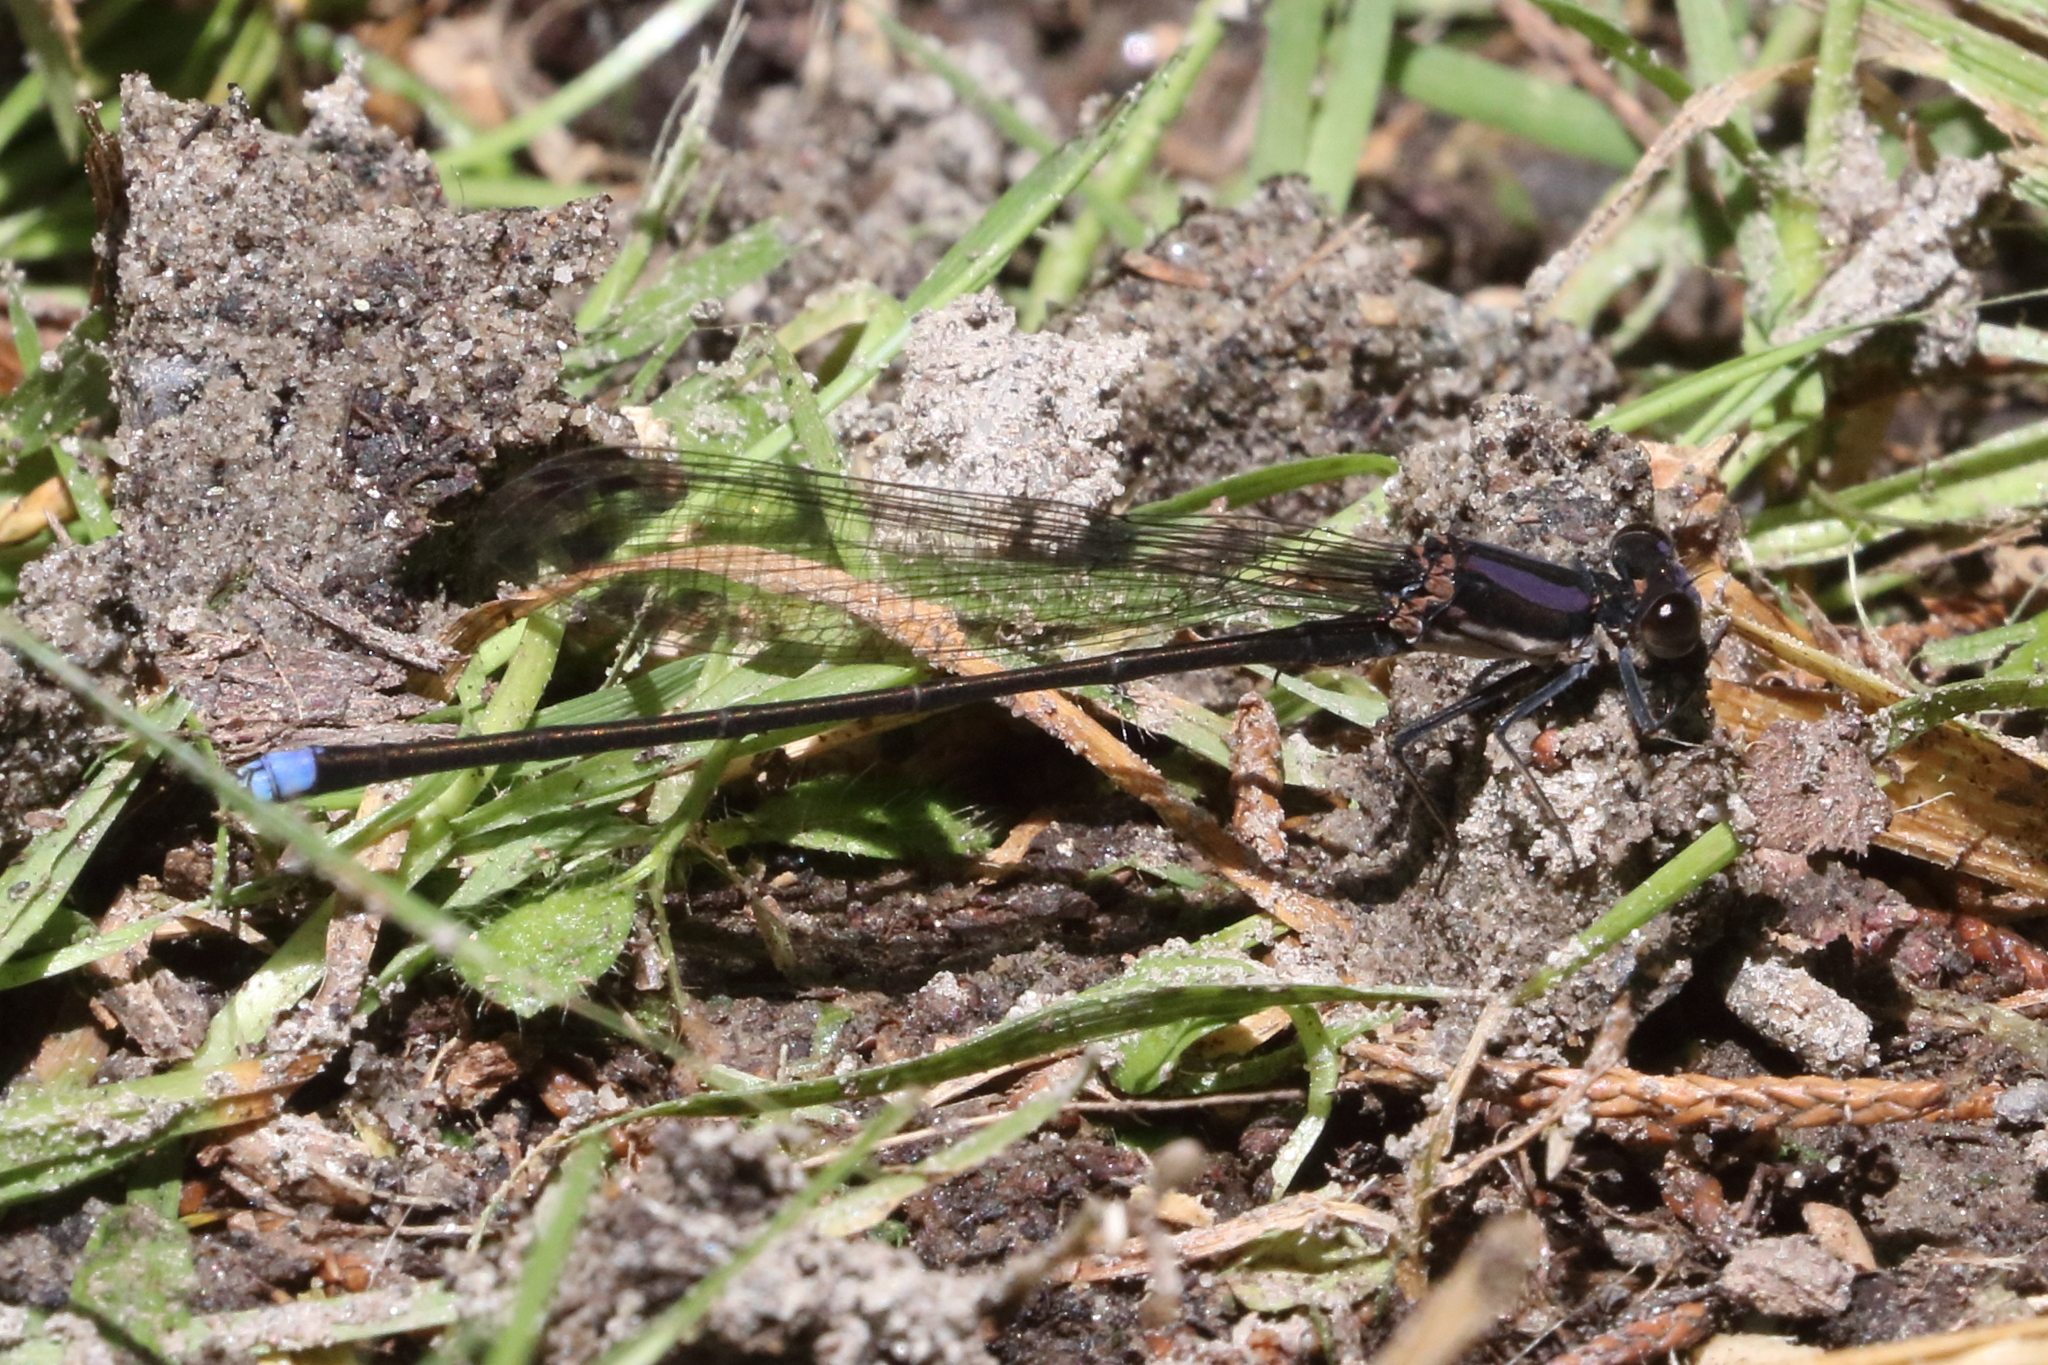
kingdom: Animalia
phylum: Arthropoda
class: Insecta
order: Odonata
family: Coenagrionidae
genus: Argia
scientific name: Argia tibialis
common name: Blue-tipped dancer
